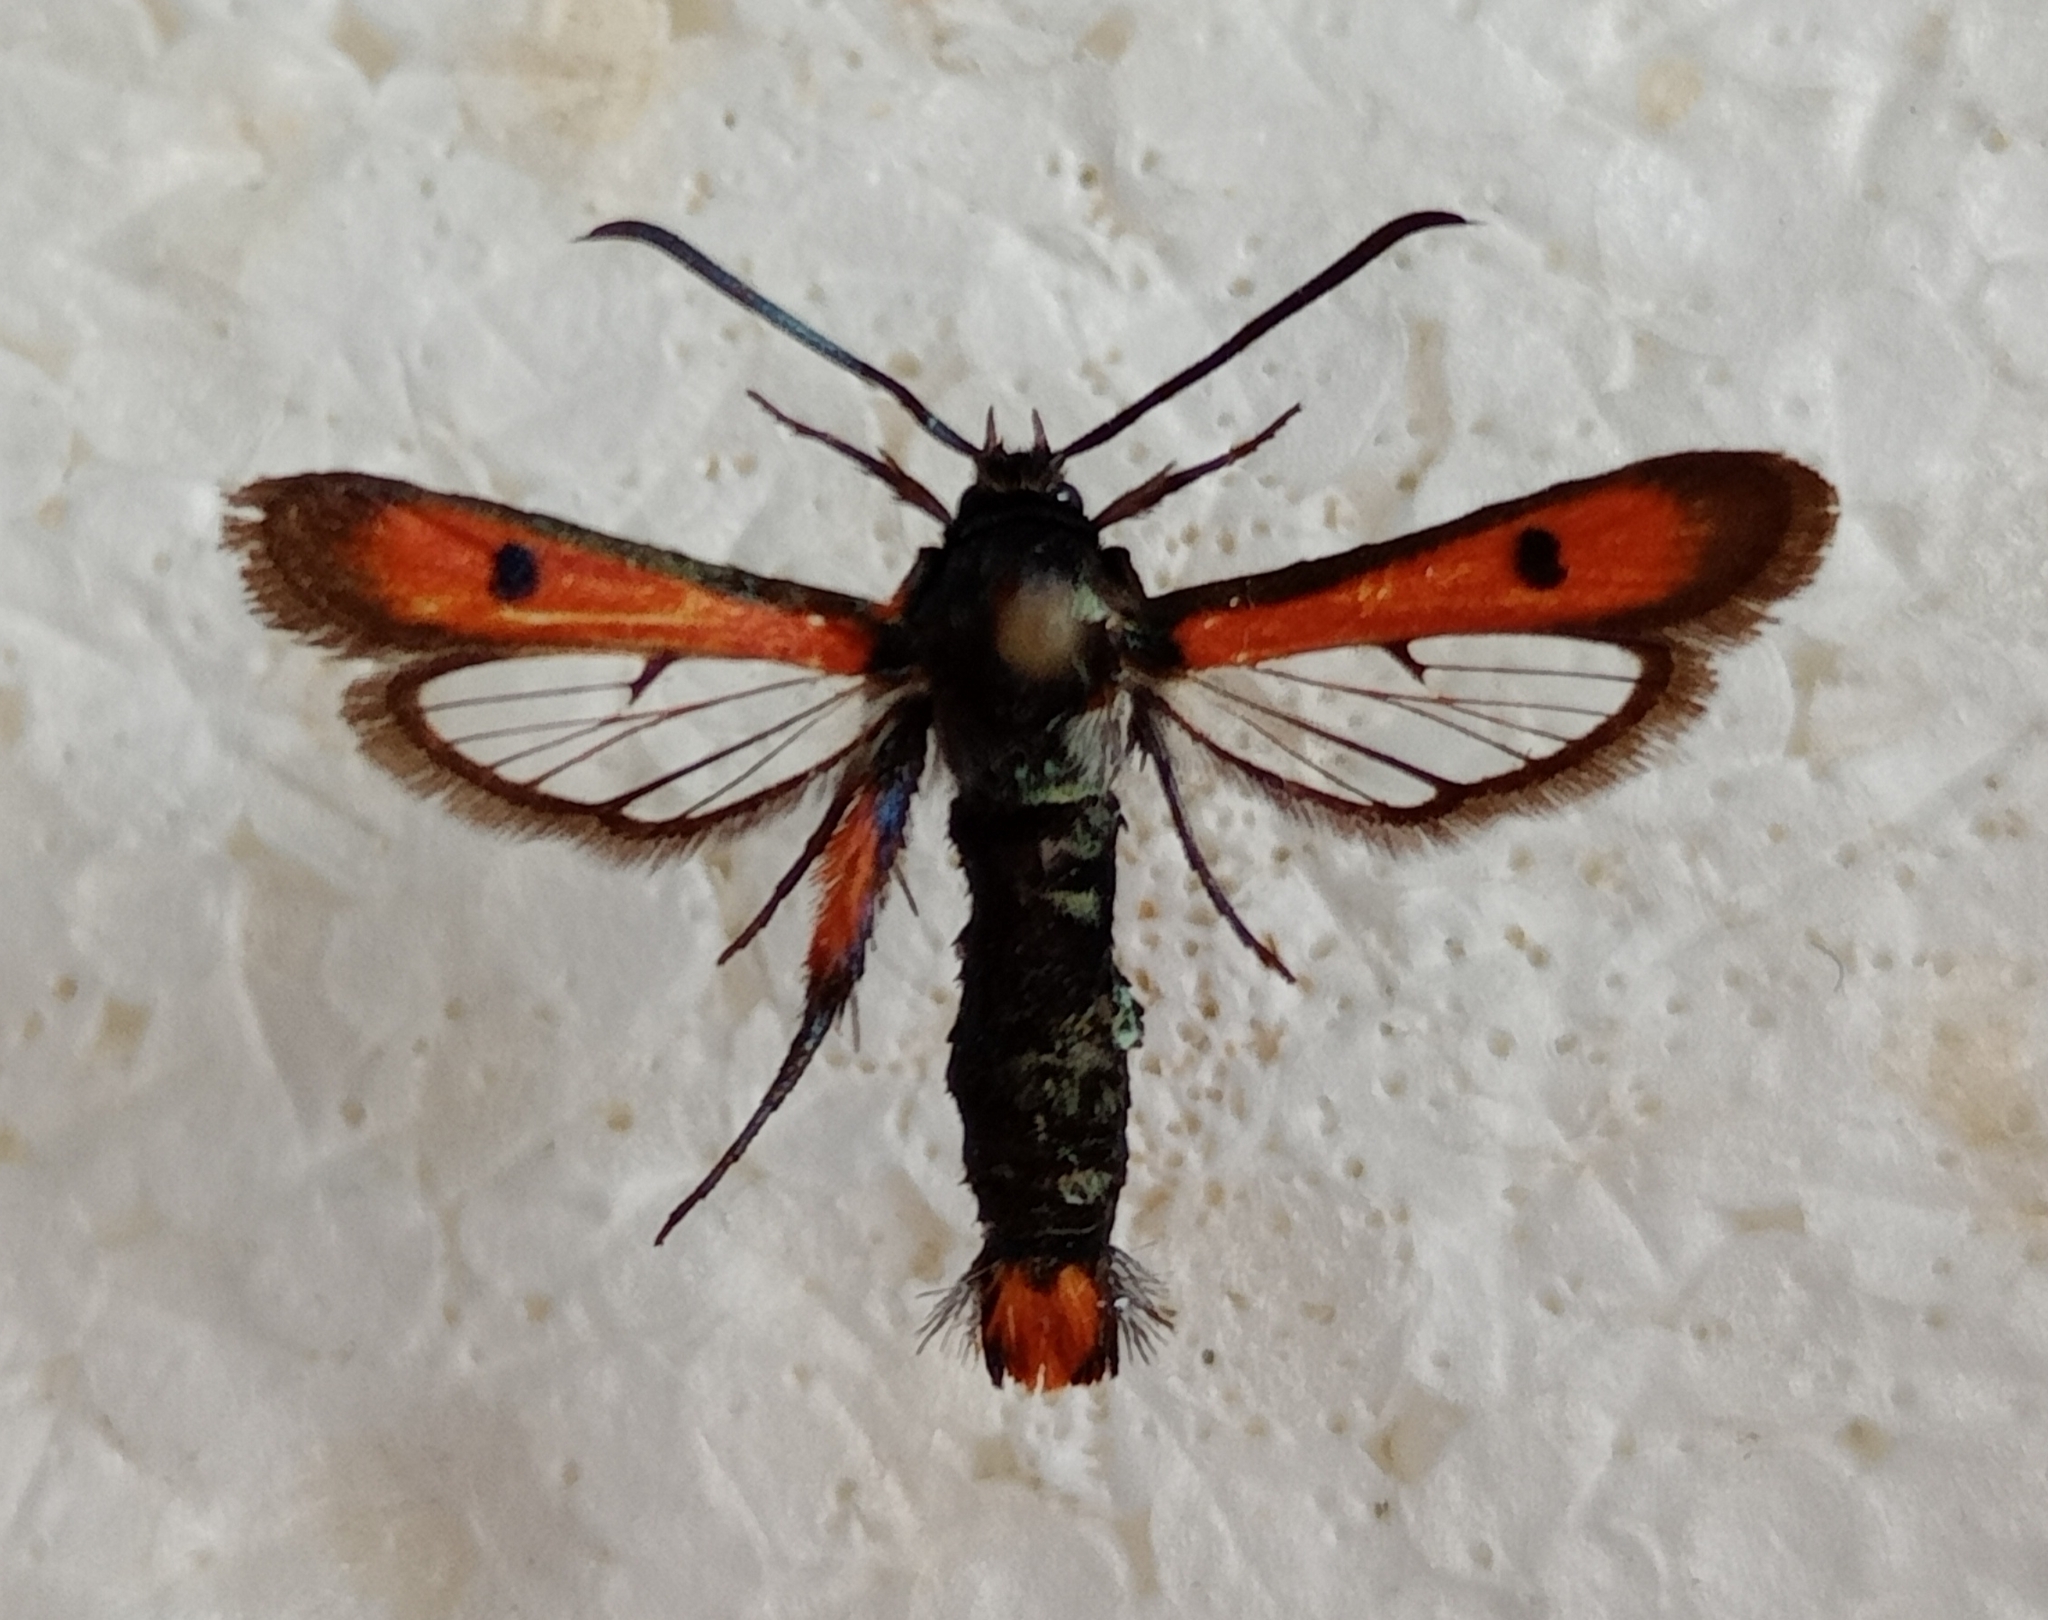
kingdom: Animalia
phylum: Arthropoda
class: Insecta
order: Lepidoptera
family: Sesiidae
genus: Chamaesphecia
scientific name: Chamaesphecia chalciformis
